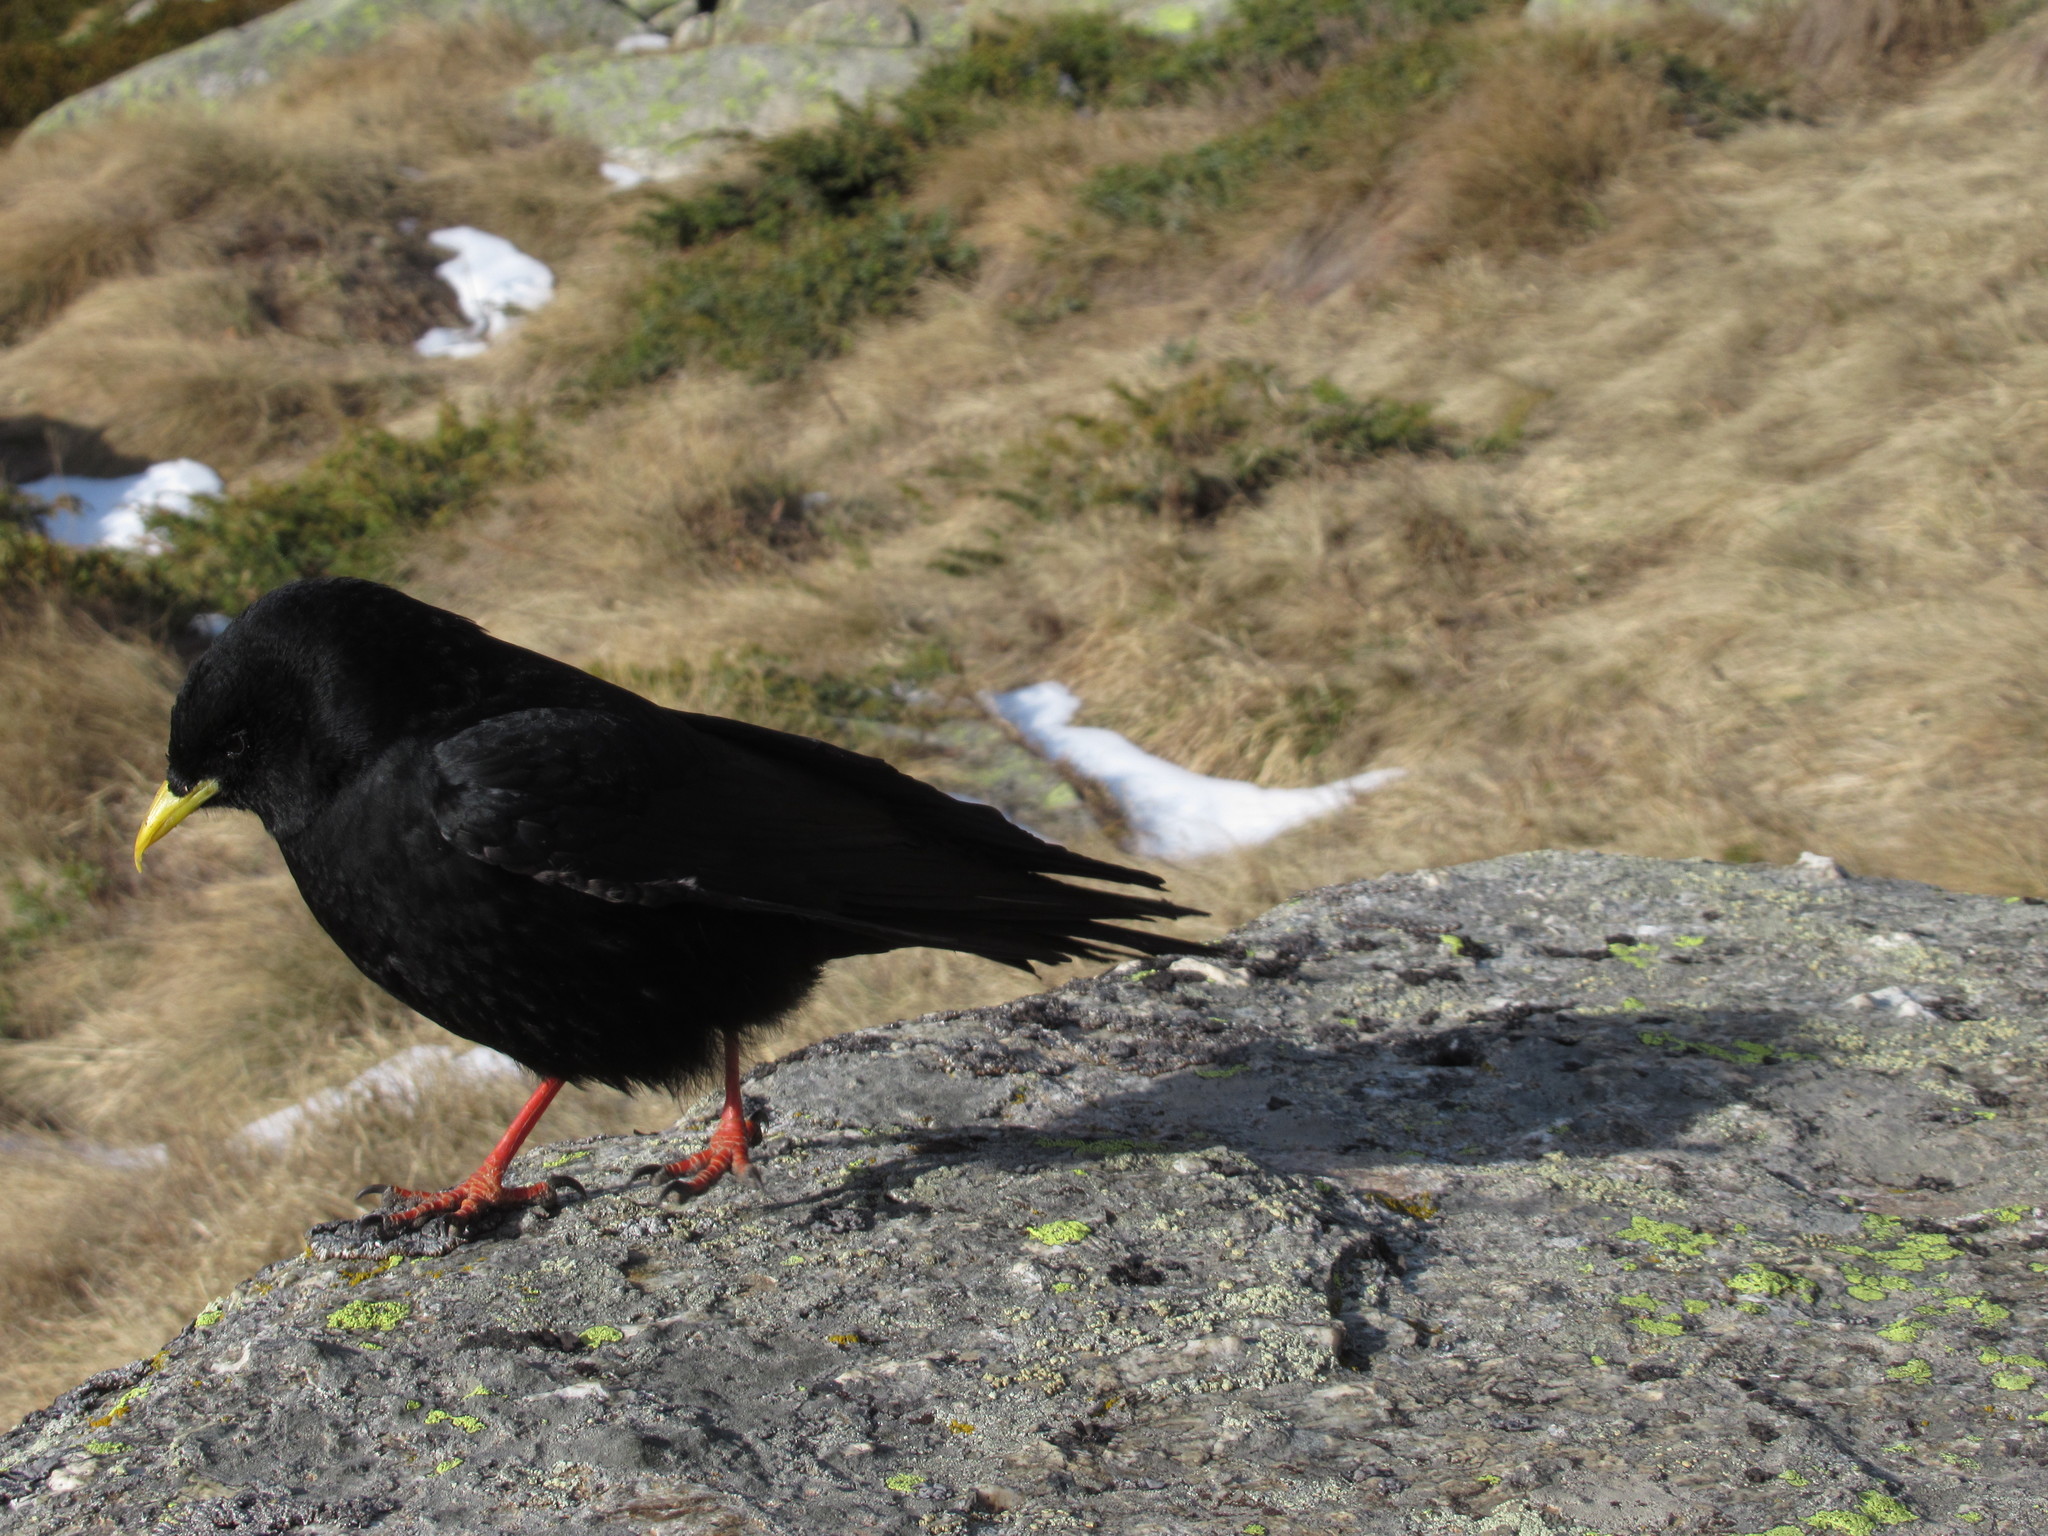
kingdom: Animalia
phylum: Chordata
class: Aves
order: Passeriformes
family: Corvidae
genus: Pyrrhocorax
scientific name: Pyrrhocorax graculus
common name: Alpine chough
